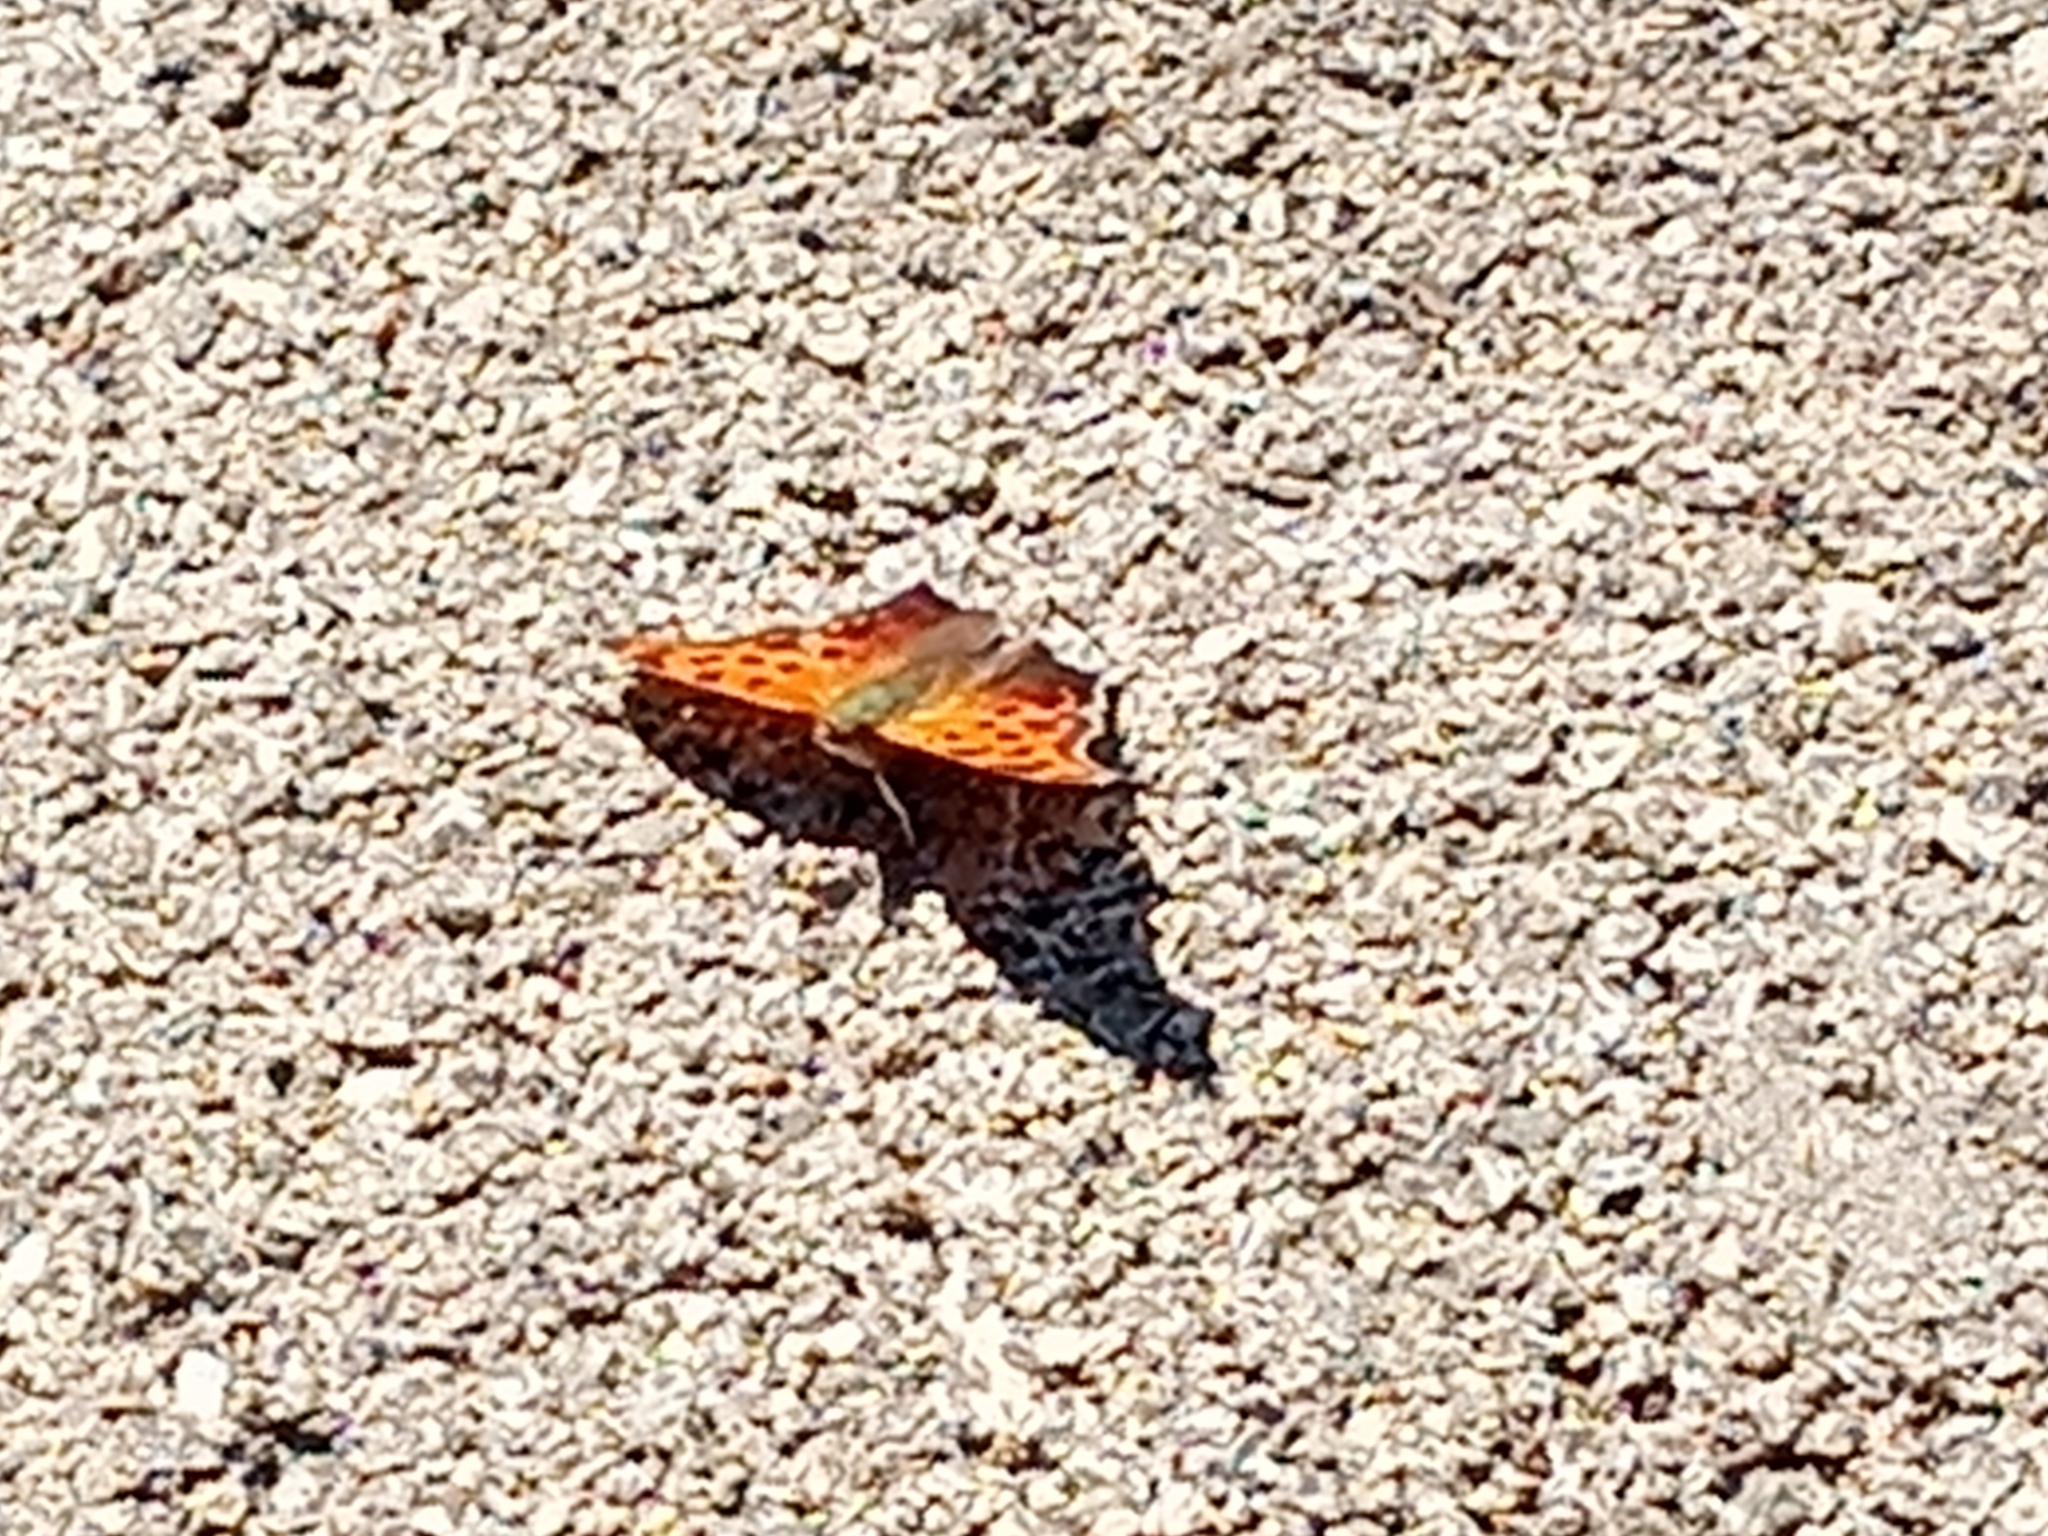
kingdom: Animalia
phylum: Arthropoda
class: Insecta
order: Lepidoptera
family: Nymphalidae
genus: Polygonia
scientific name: Polygonia interrogationis
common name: Question mark
